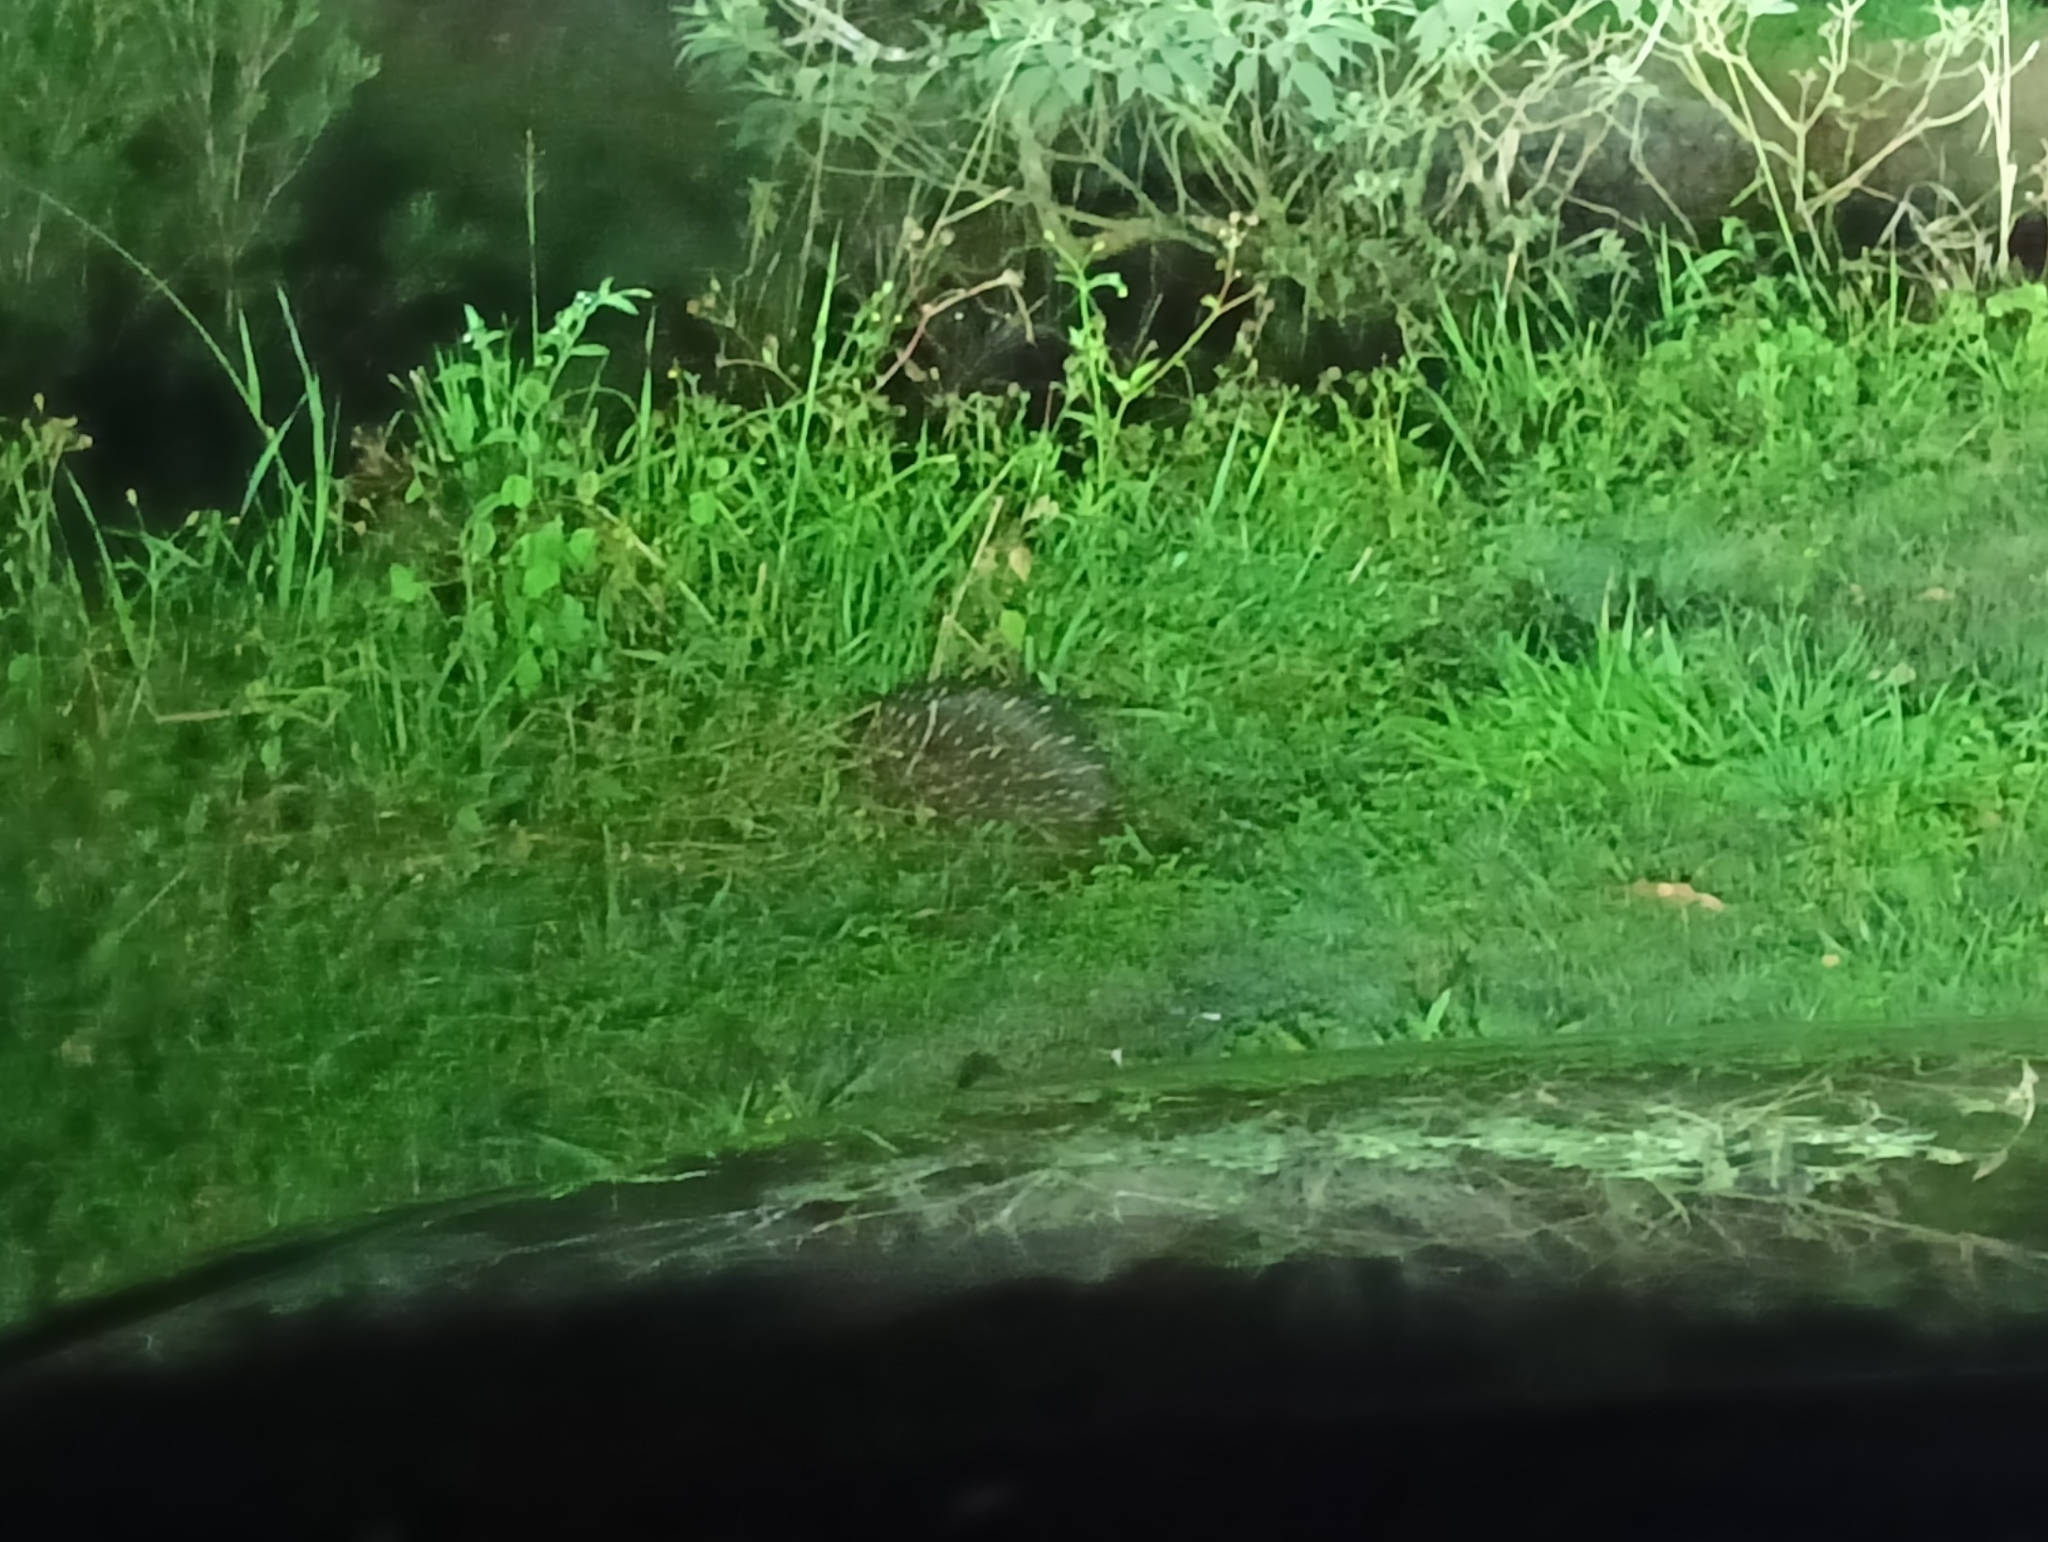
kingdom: Animalia
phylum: Chordata
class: Mammalia
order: Monotremata
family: Tachyglossidae
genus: Tachyglossus
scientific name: Tachyglossus aculeatus
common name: Short-beaked echidna
